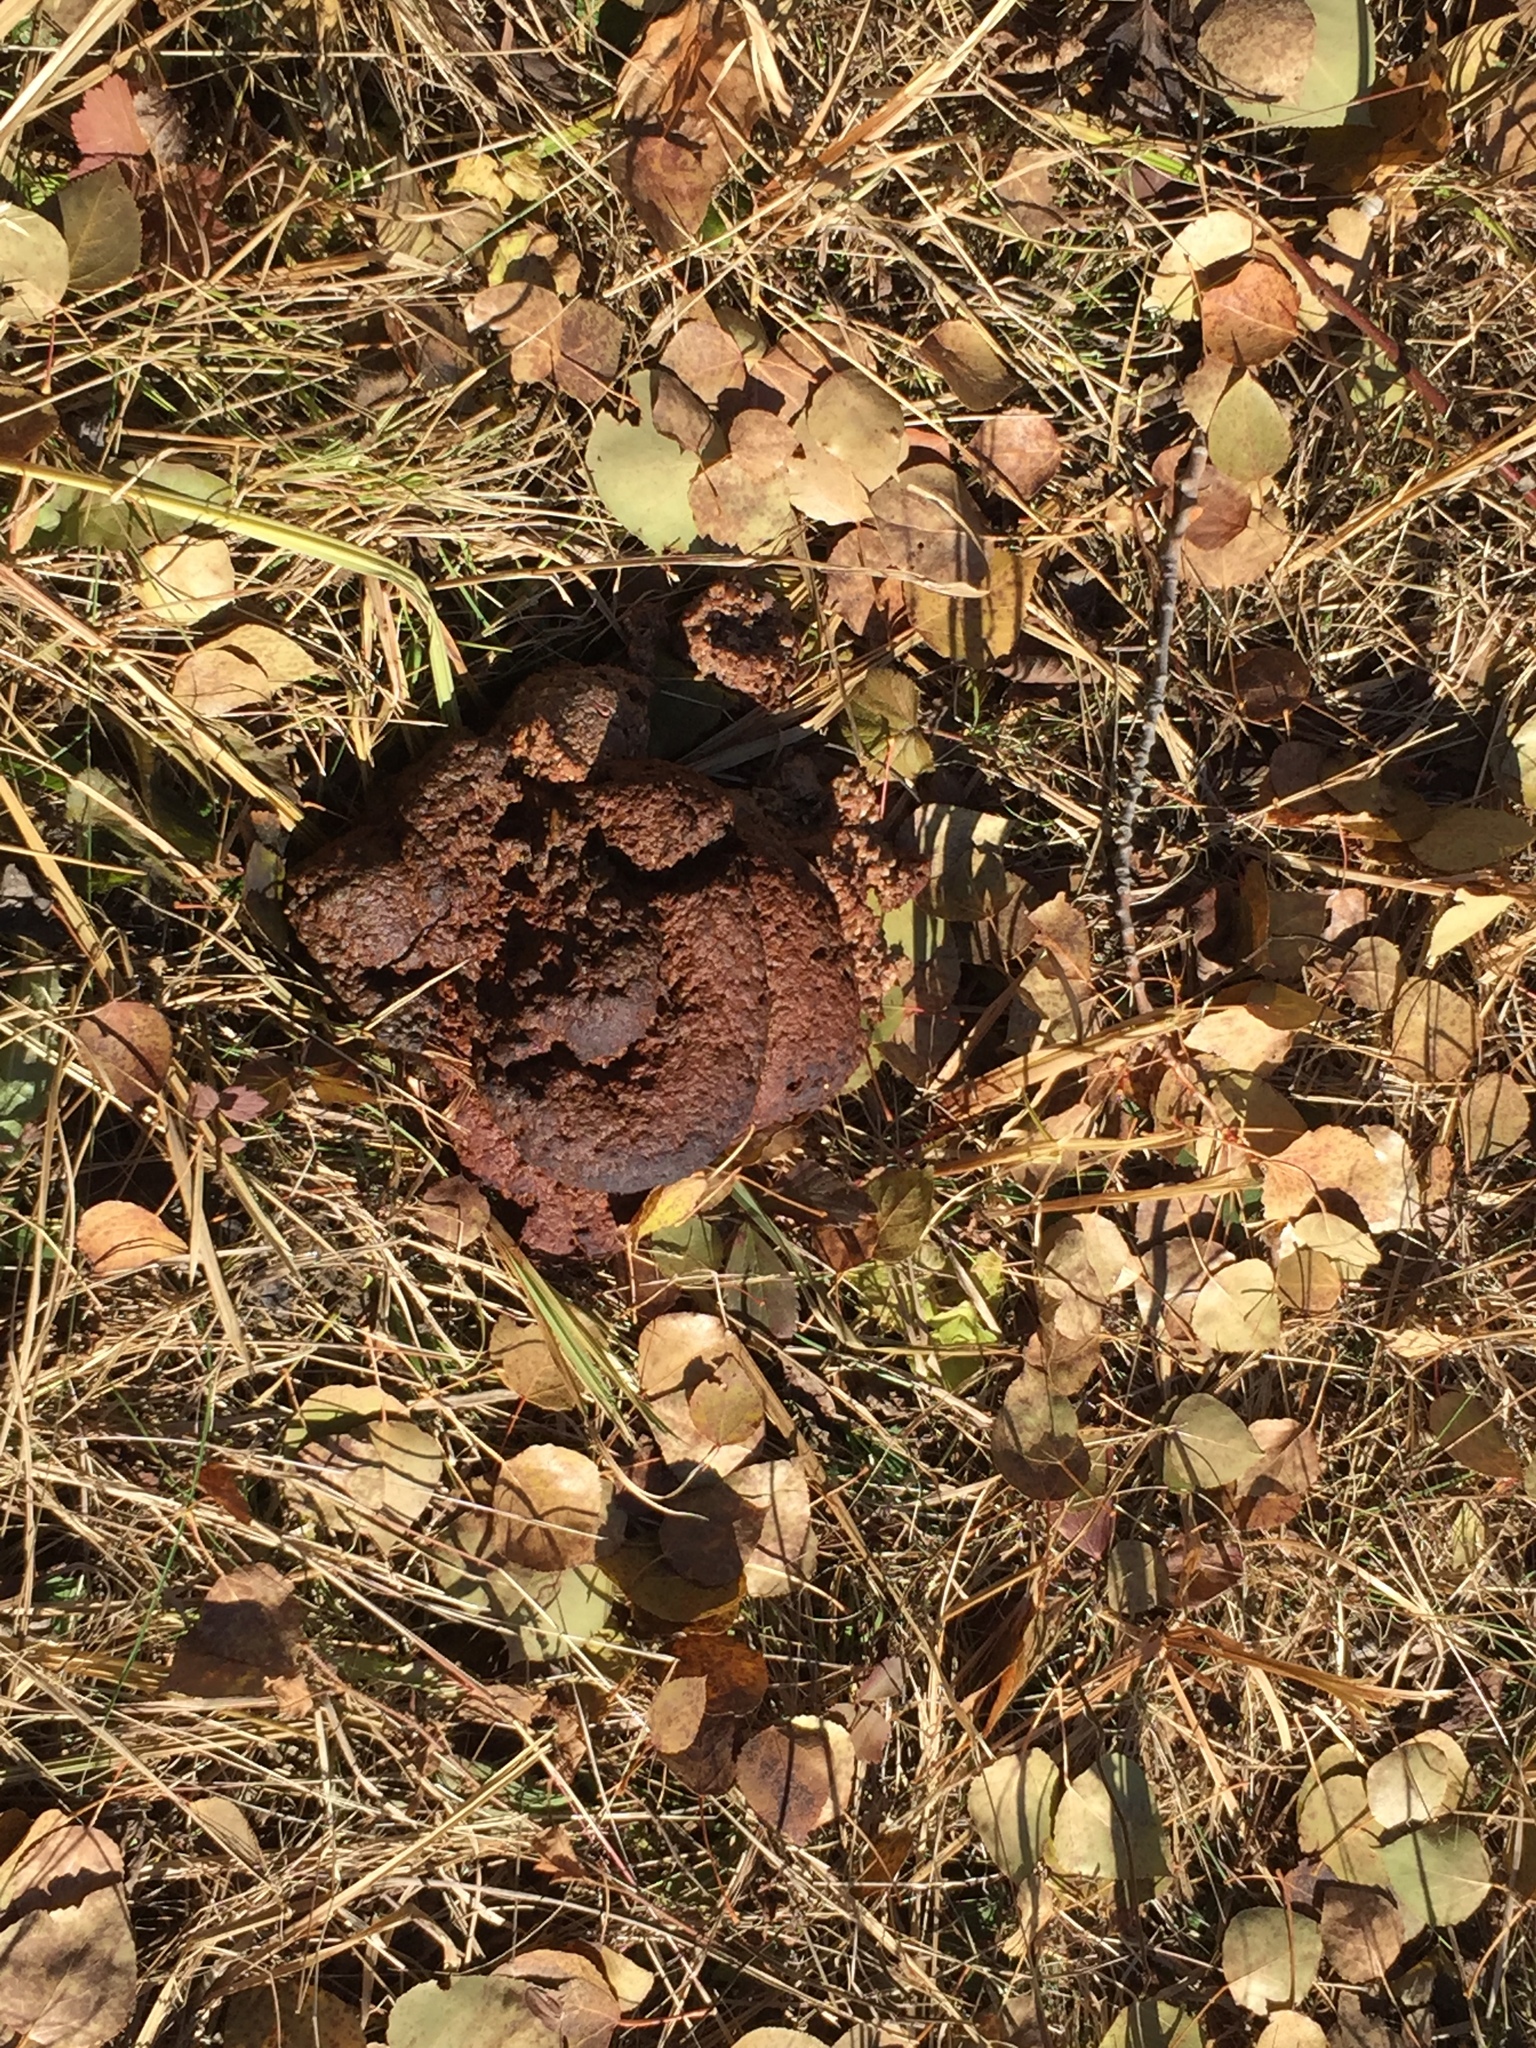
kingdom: Animalia
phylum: Chordata
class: Mammalia
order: Carnivora
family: Ursidae
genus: Ursus
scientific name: Ursus americanus
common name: American black bear
